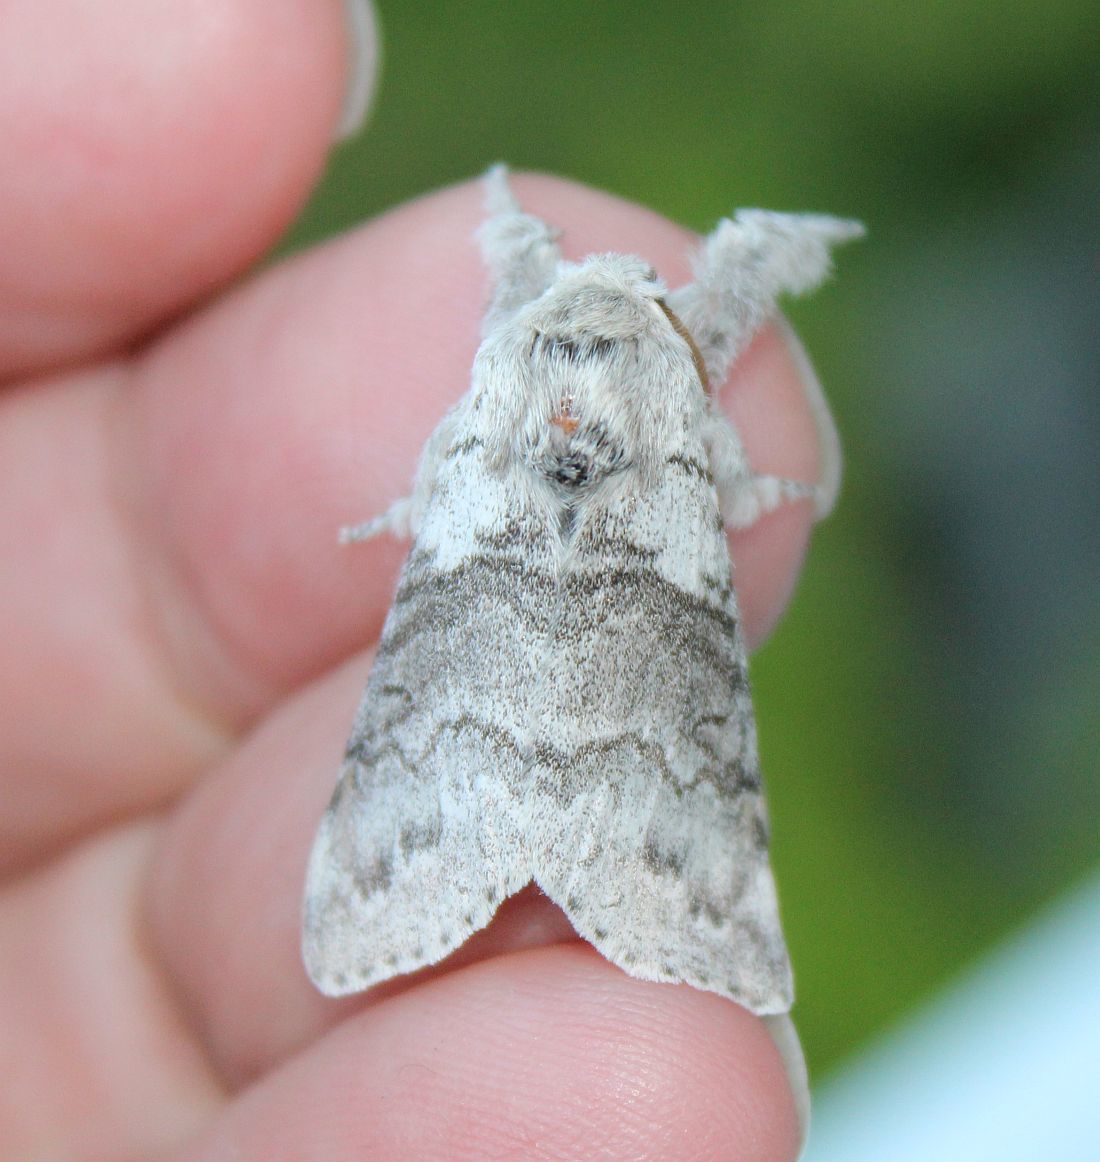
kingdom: Animalia
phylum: Arthropoda
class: Insecta
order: Lepidoptera
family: Erebidae
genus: Calliteara
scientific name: Calliteara pudibunda
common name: Pale tussock
